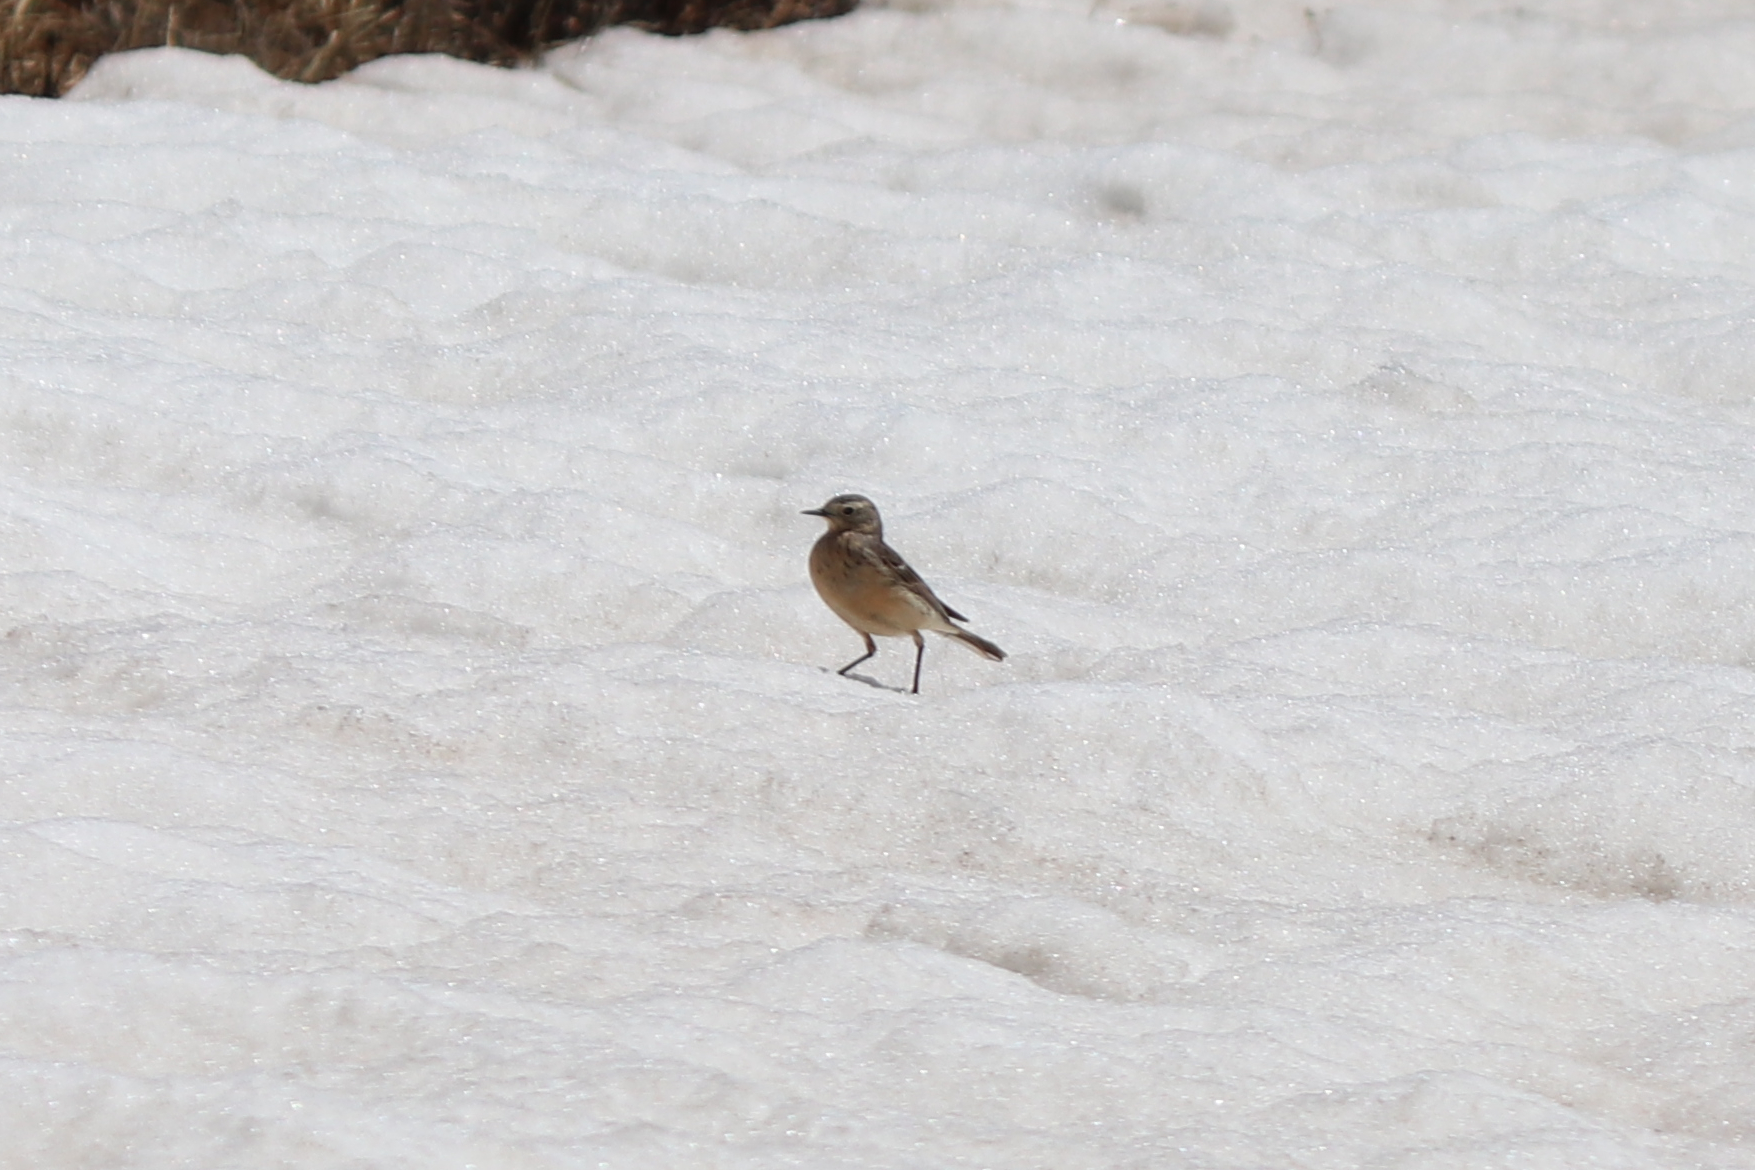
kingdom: Animalia
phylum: Chordata
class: Aves
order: Passeriformes
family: Motacillidae
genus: Anthus
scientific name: Anthus rubescens
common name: Buff-bellied pipit
